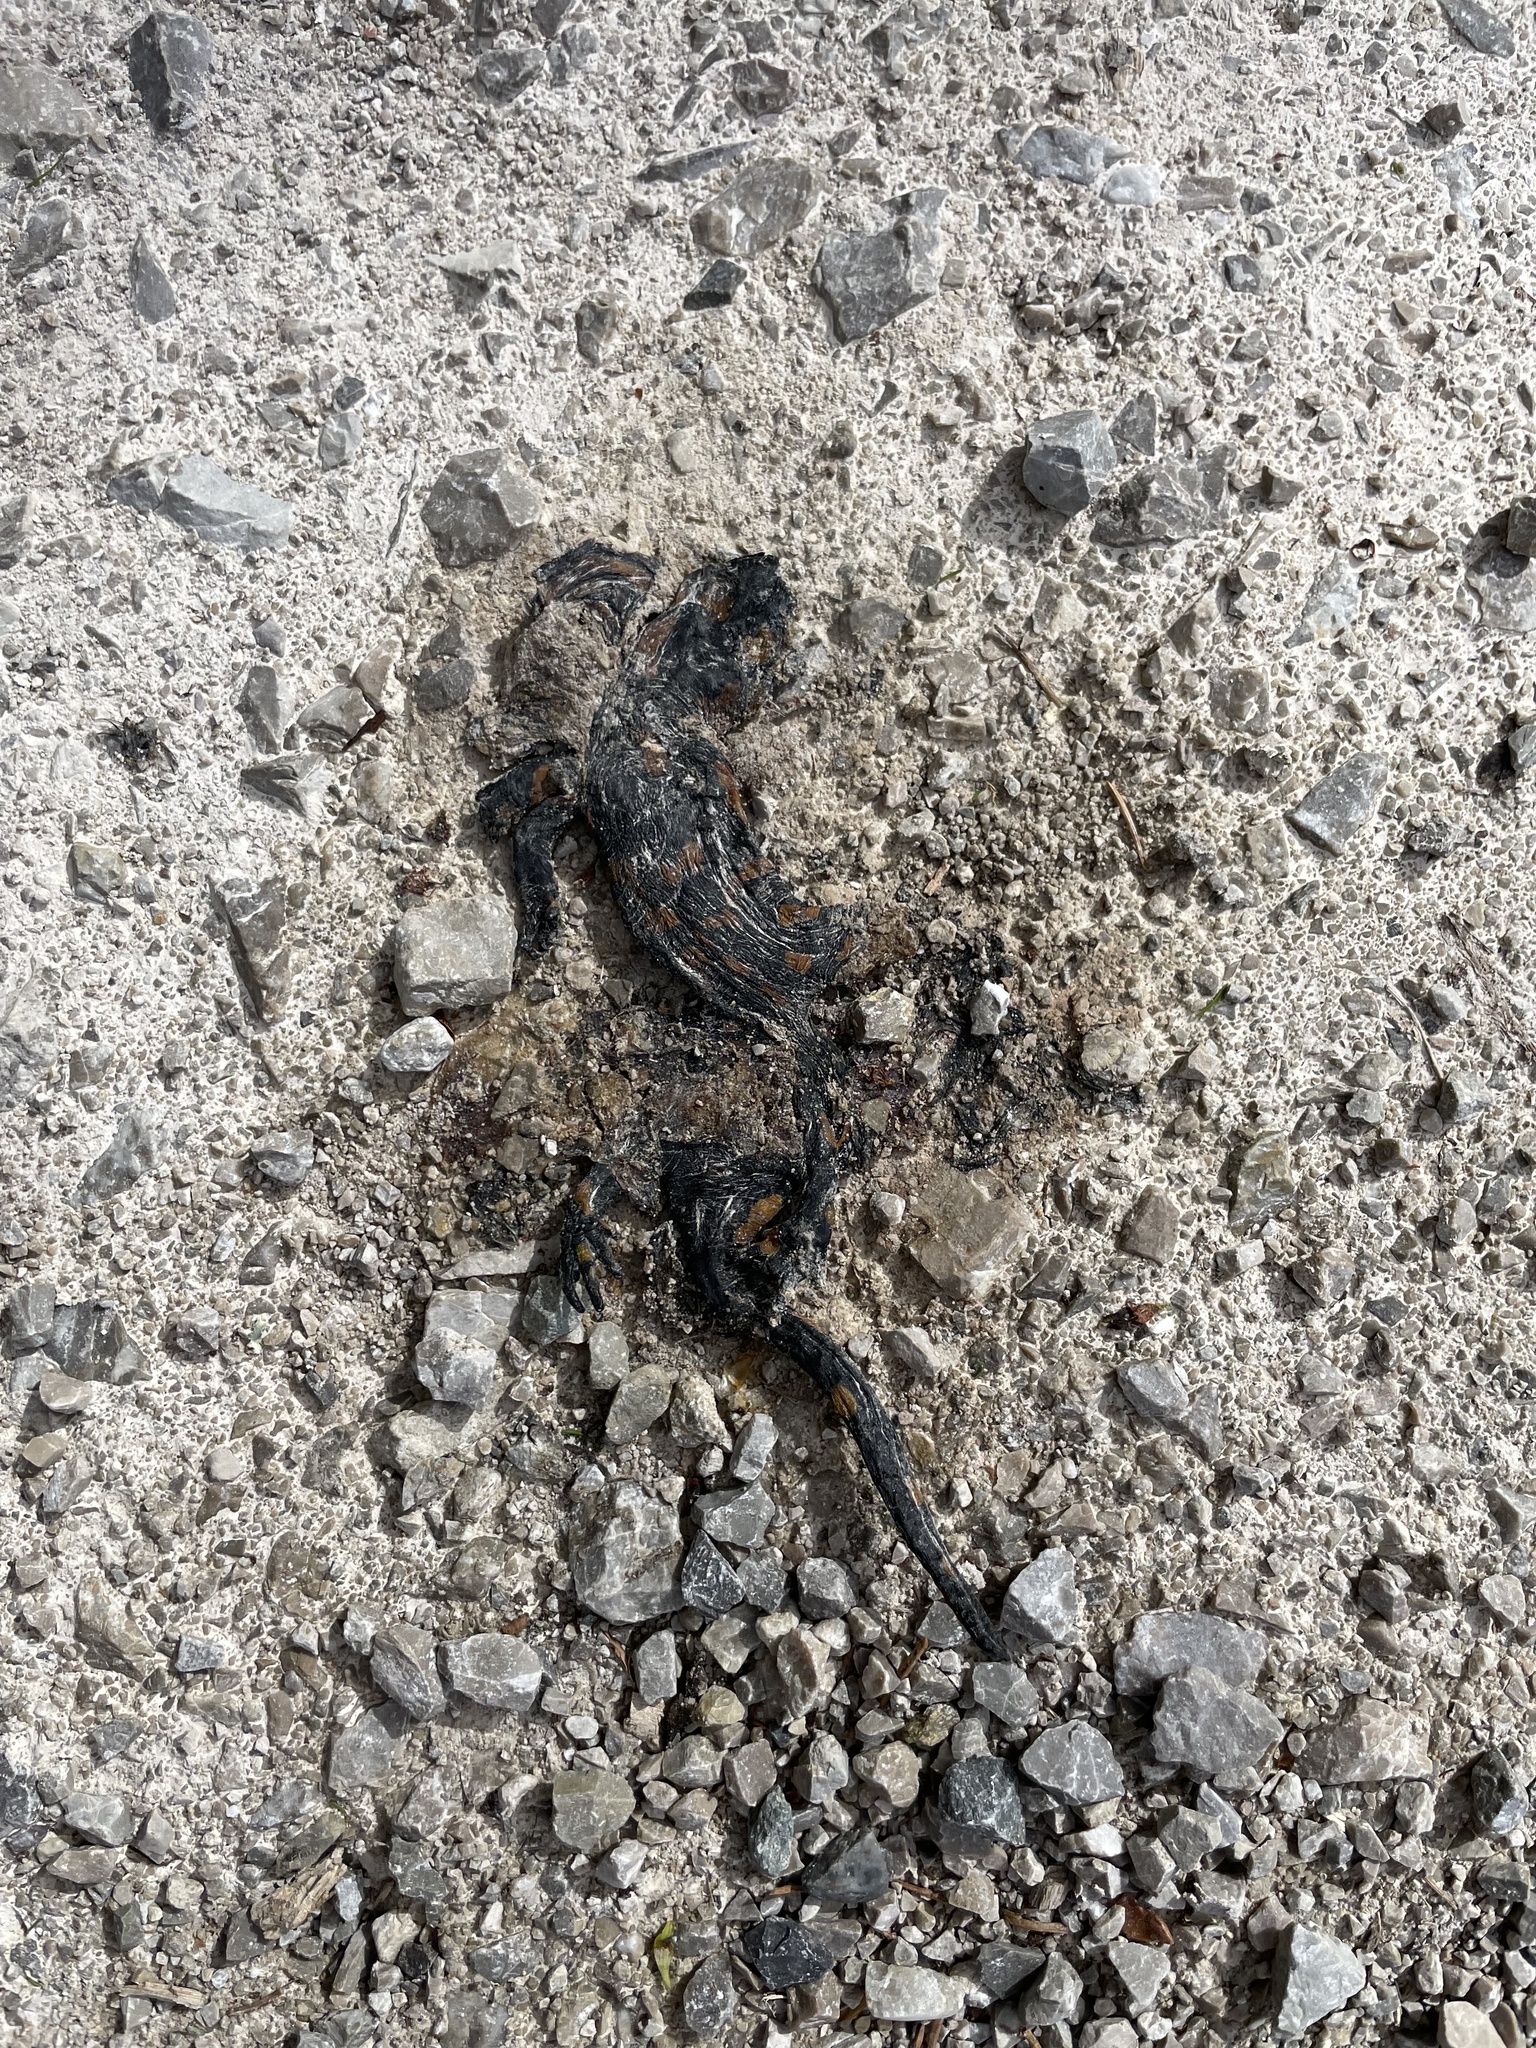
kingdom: Animalia
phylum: Chordata
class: Amphibia
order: Caudata
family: Salamandridae
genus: Salamandra
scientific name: Salamandra salamandra
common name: Fire salamander
